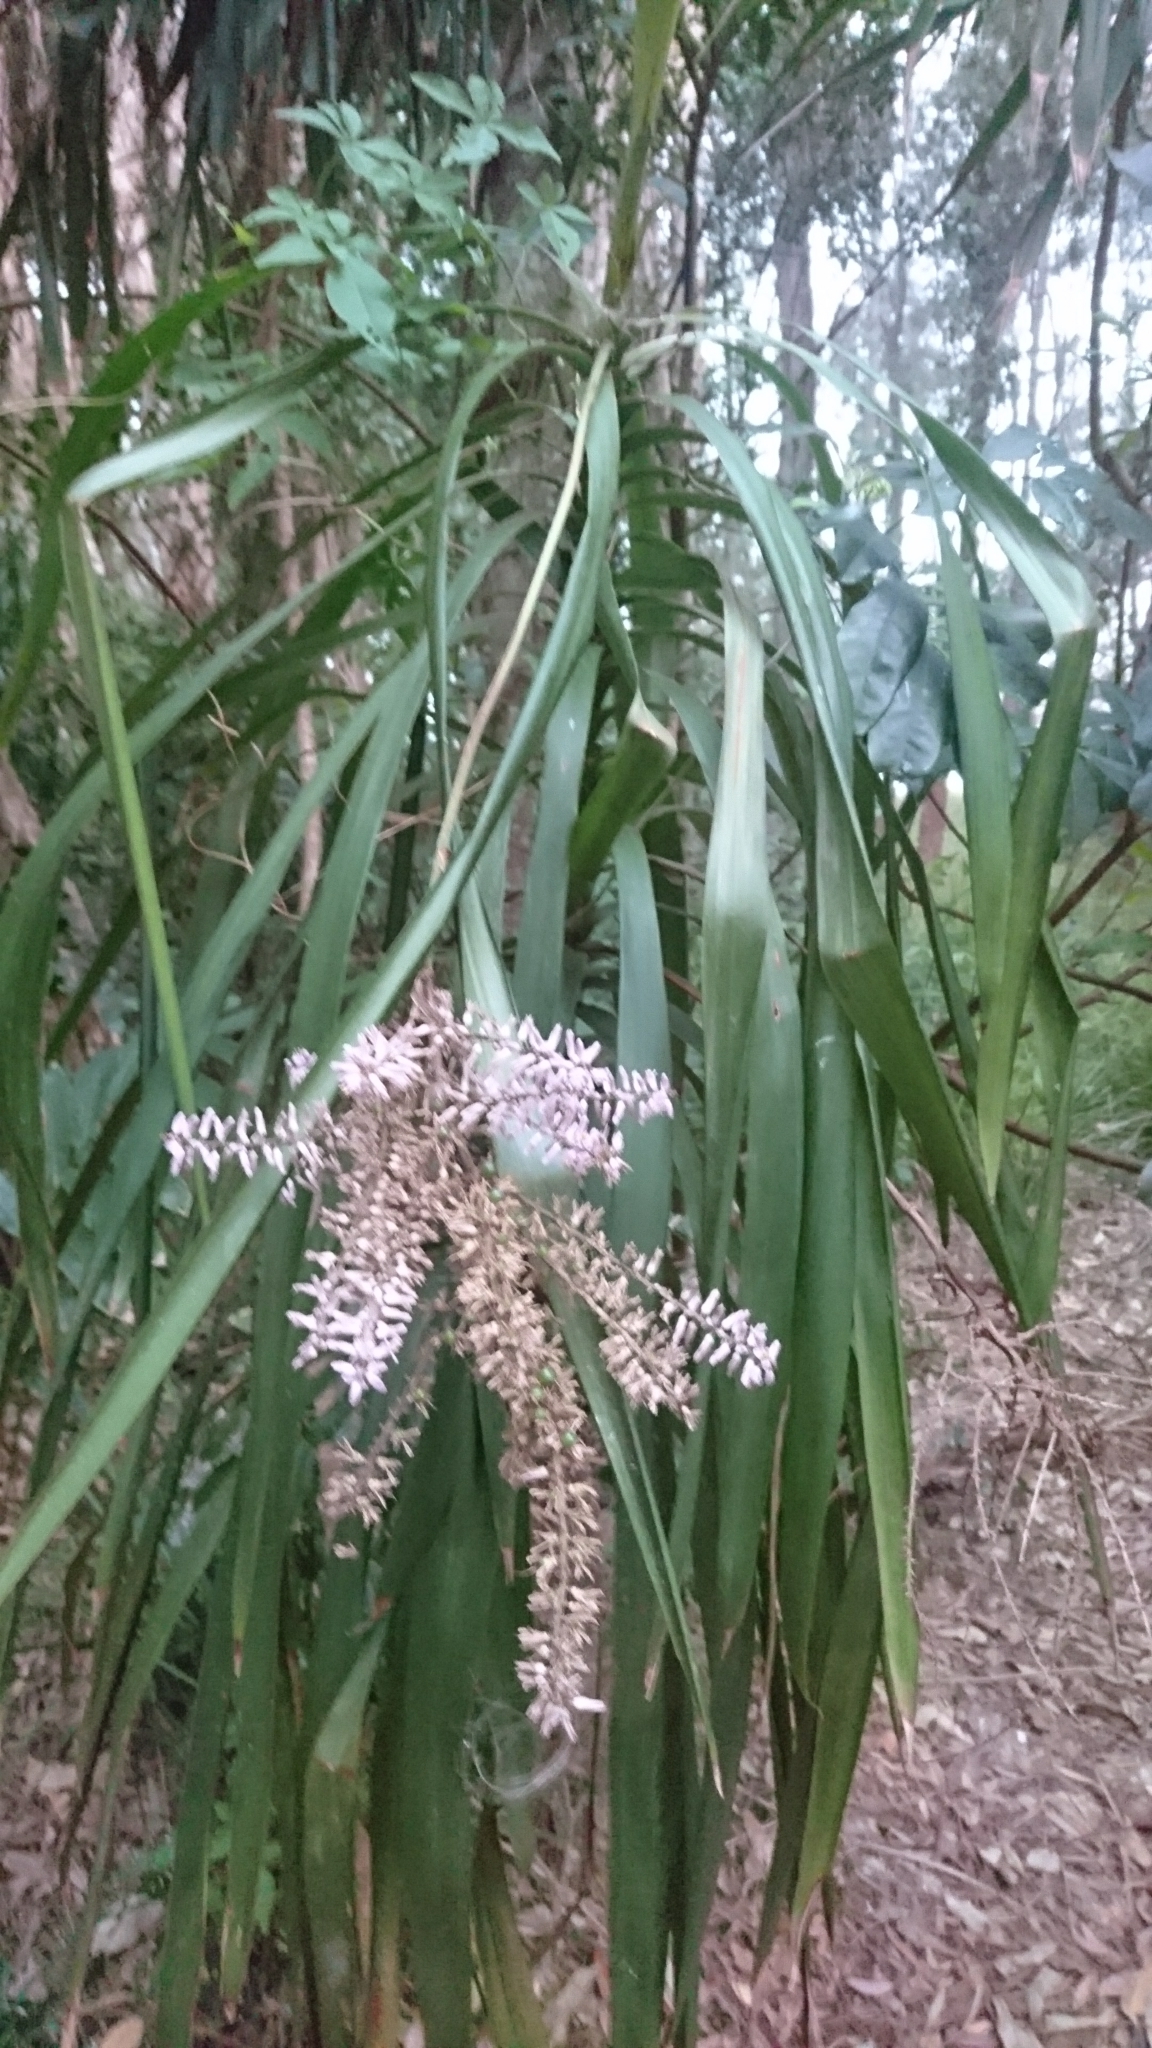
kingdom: Plantae
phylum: Tracheophyta
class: Liliopsida
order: Asparagales
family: Asparagaceae
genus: Cordyline
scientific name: Cordyline stricta
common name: Narrow-leaf palm-lily
